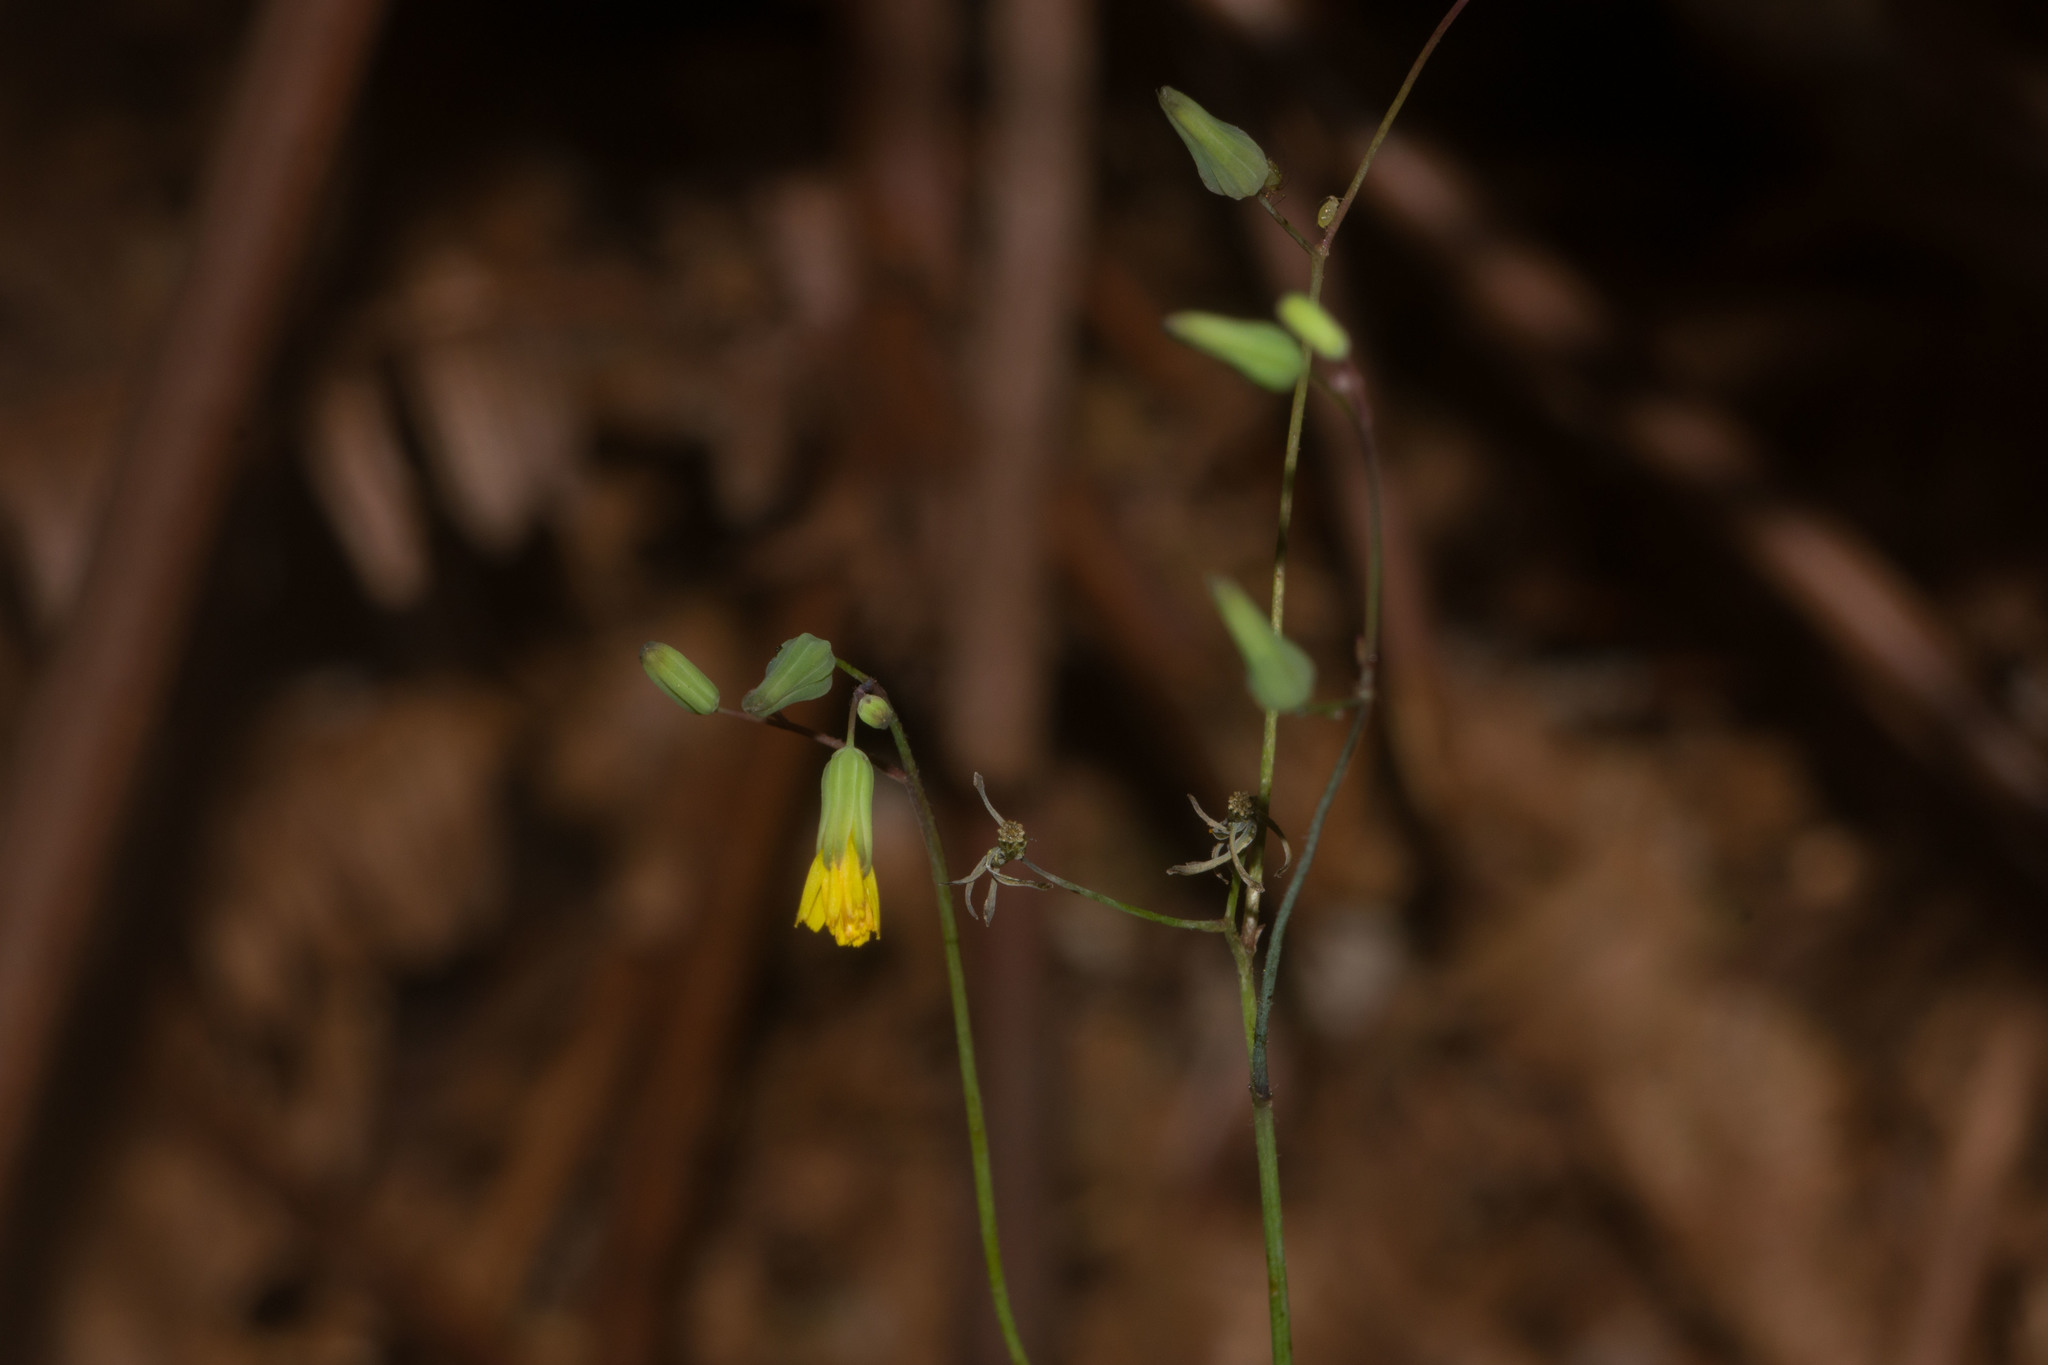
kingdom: Plantae
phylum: Tracheophyta
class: Magnoliopsida
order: Asterales
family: Asteraceae
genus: Youngia
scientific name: Youngia japonica
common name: Oriental false hawksbeard
